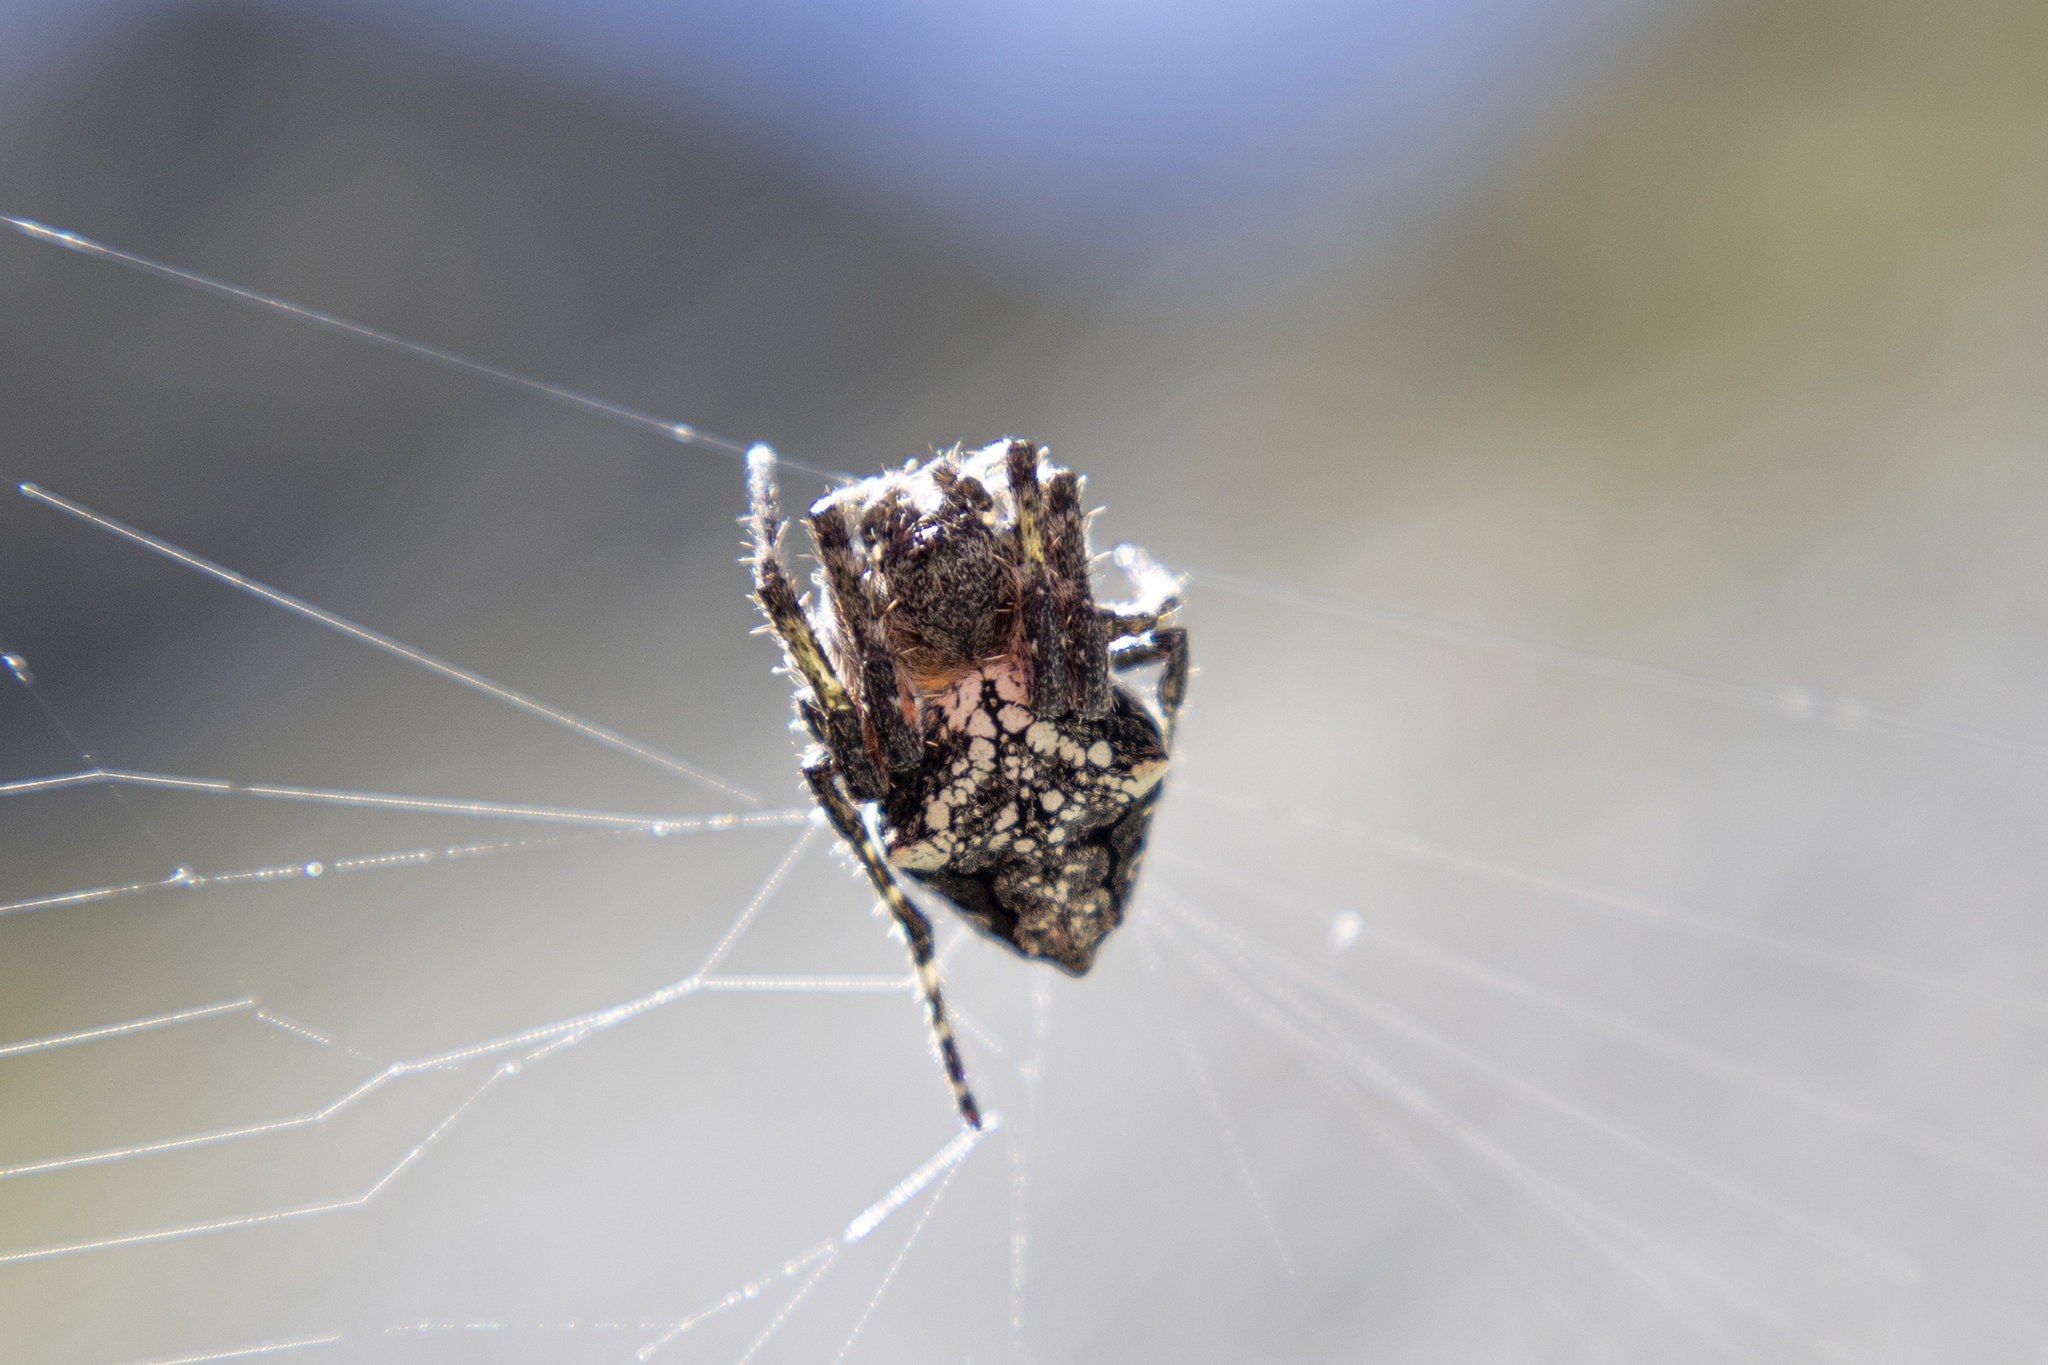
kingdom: Animalia
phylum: Arthropoda
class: Arachnida
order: Araneae
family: Araneidae
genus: Eriophora
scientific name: Eriophora pustulosa
